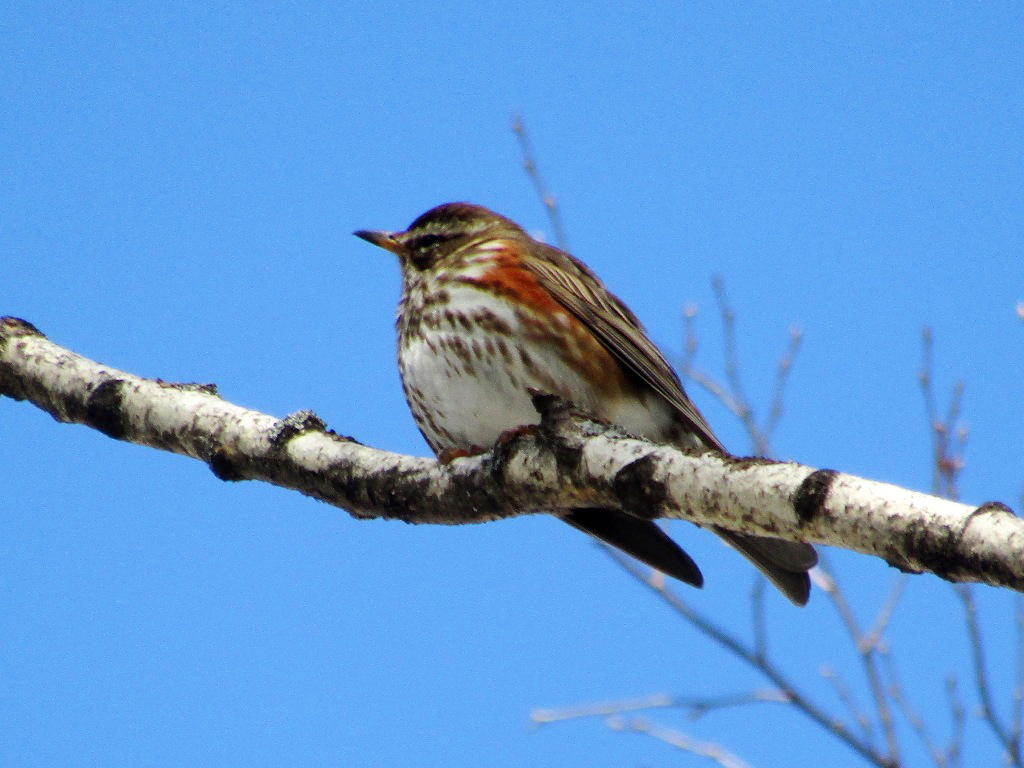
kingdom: Animalia
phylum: Chordata
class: Aves
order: Passeriformes
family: Turdidae
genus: Turdus
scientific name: Turdus iliacus
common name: Redwing
